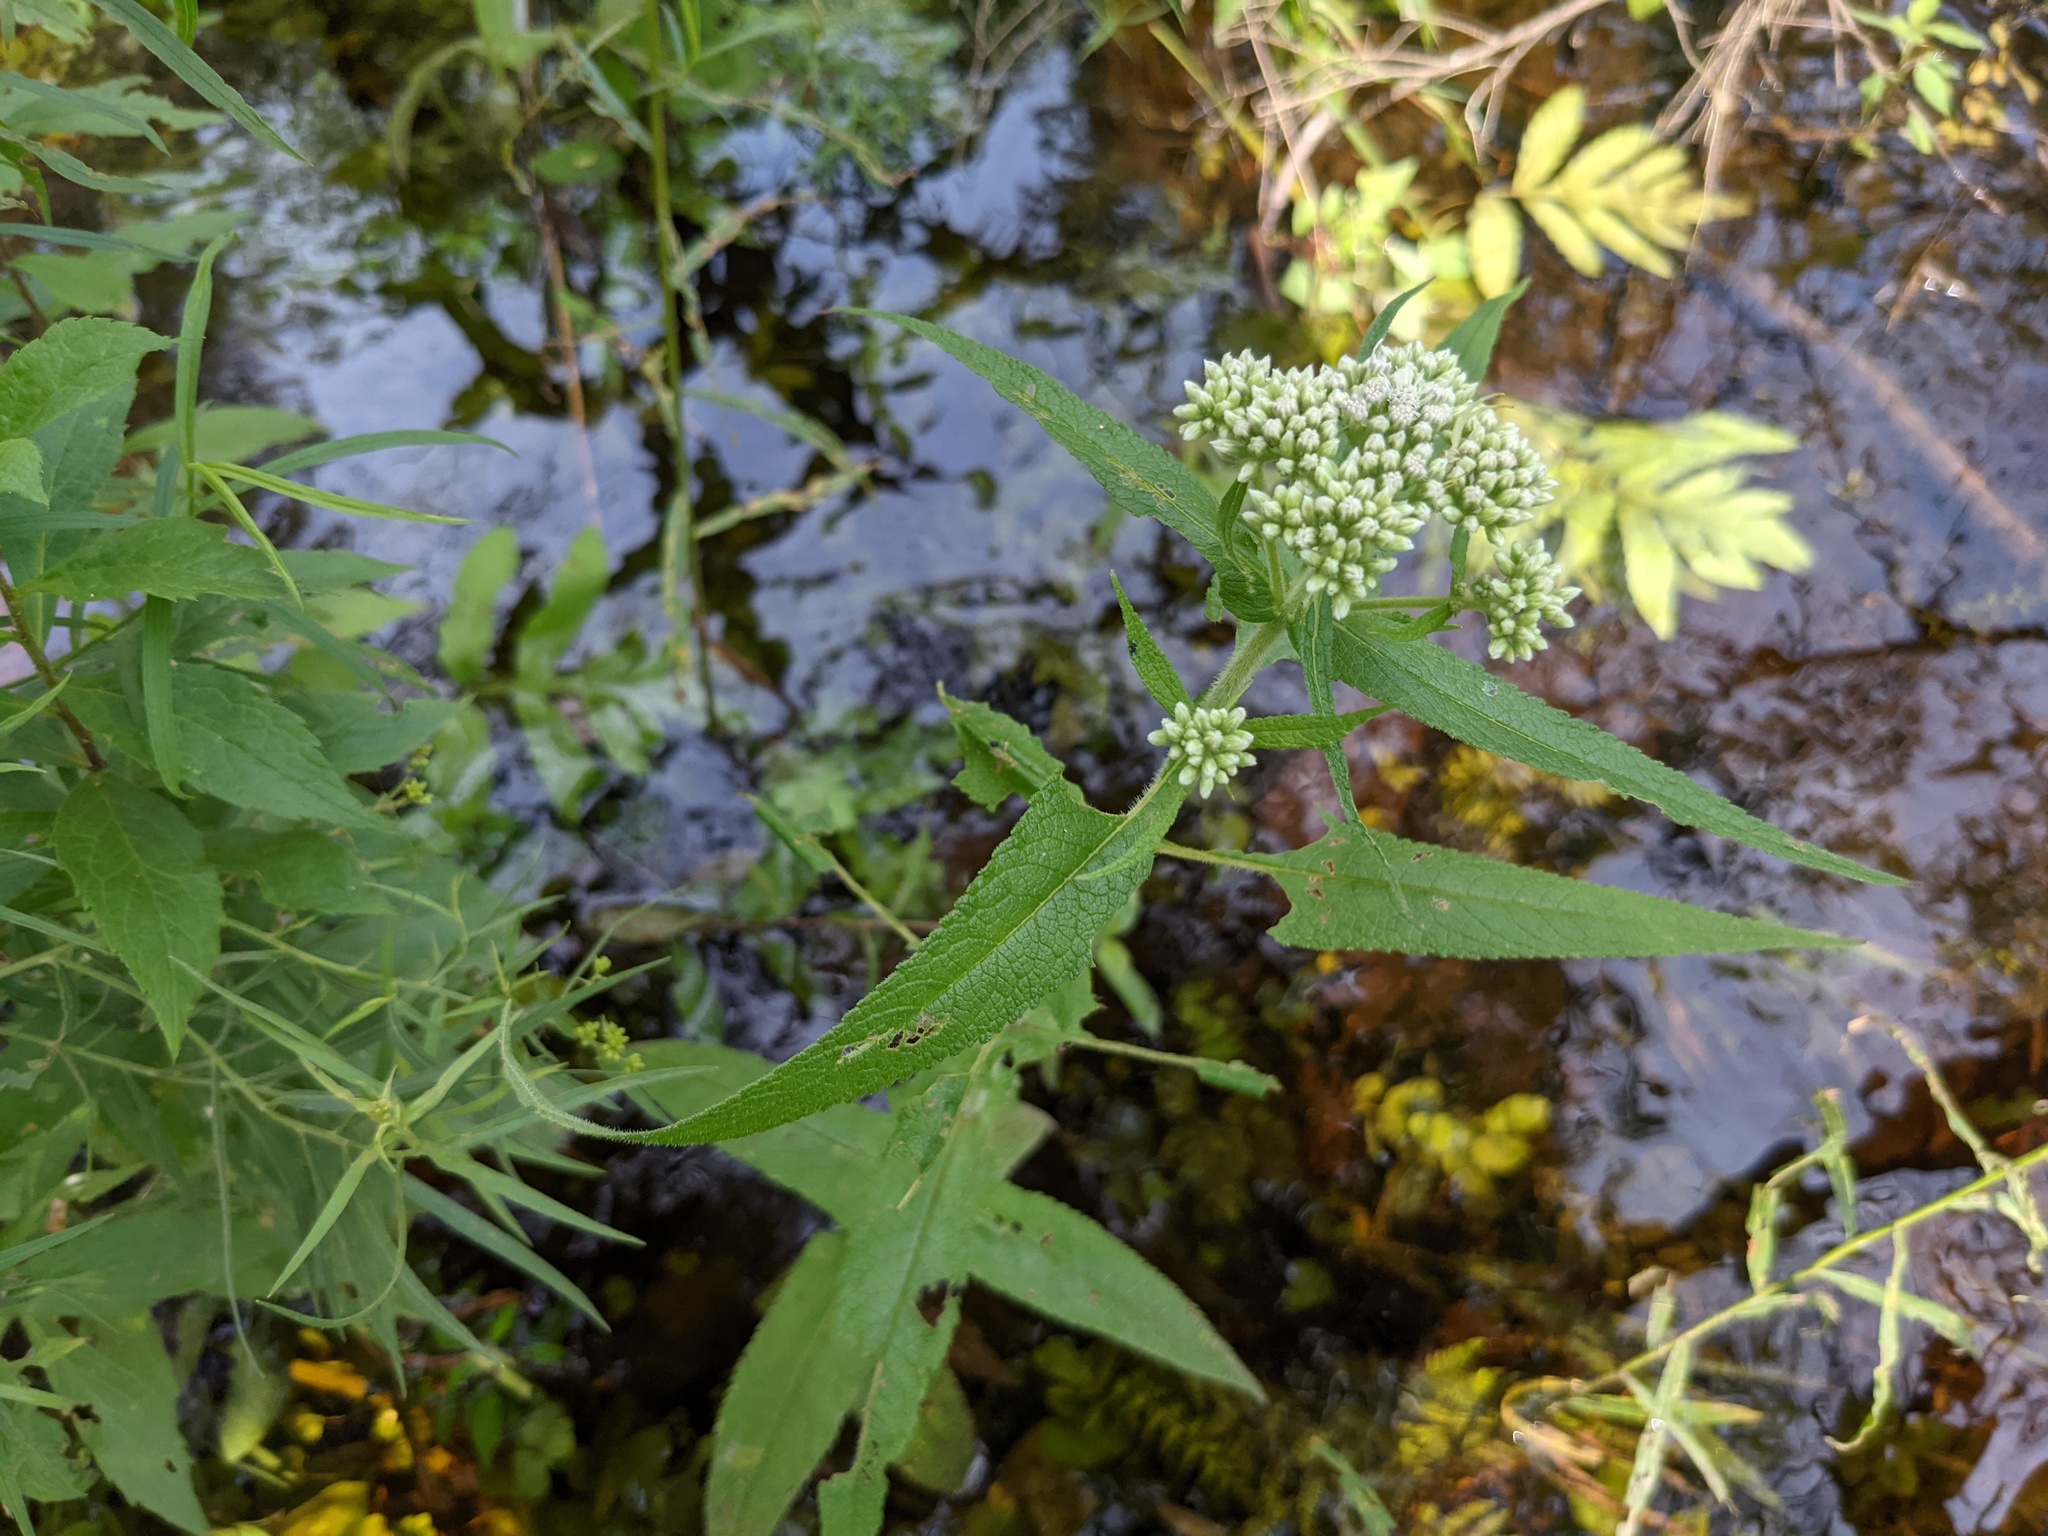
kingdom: Plantae
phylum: Tracheophyta
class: Magnoliopsida
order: Asterales
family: Asteraceae
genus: Eupatorium
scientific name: Eupatorium perfoliatum
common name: Boneset
